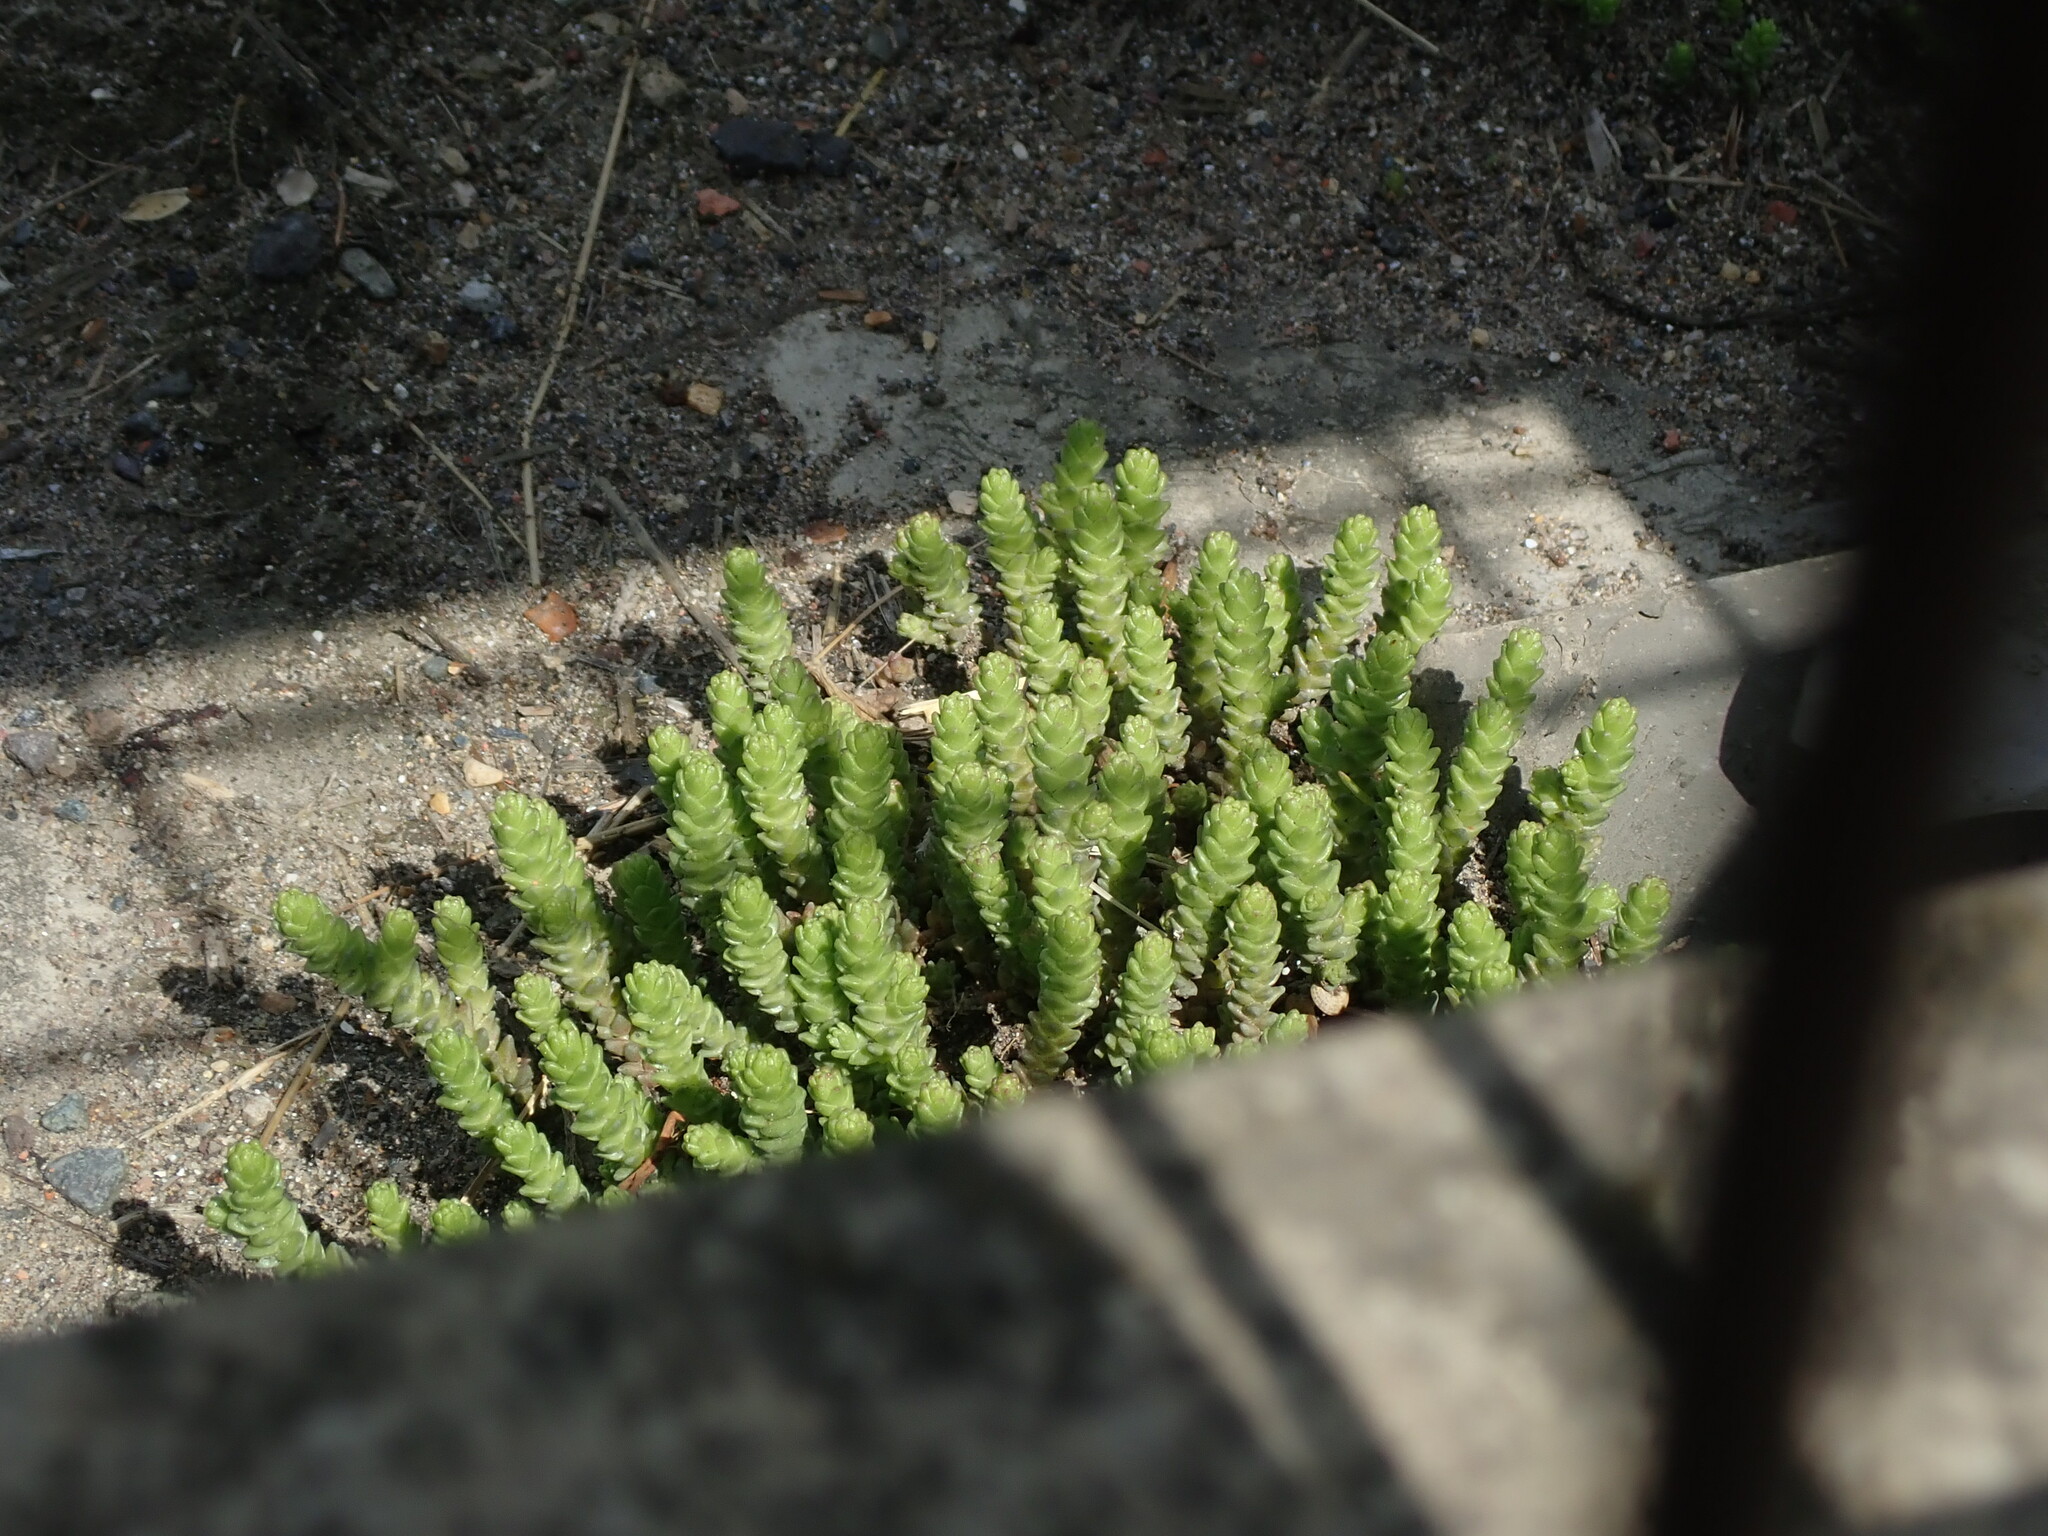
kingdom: Plantae
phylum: Tracheophyta
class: Magnoliopsida
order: Saxifragales
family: Crassulaceae
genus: Sedum
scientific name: Sedum acre
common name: Biting stonecrop
